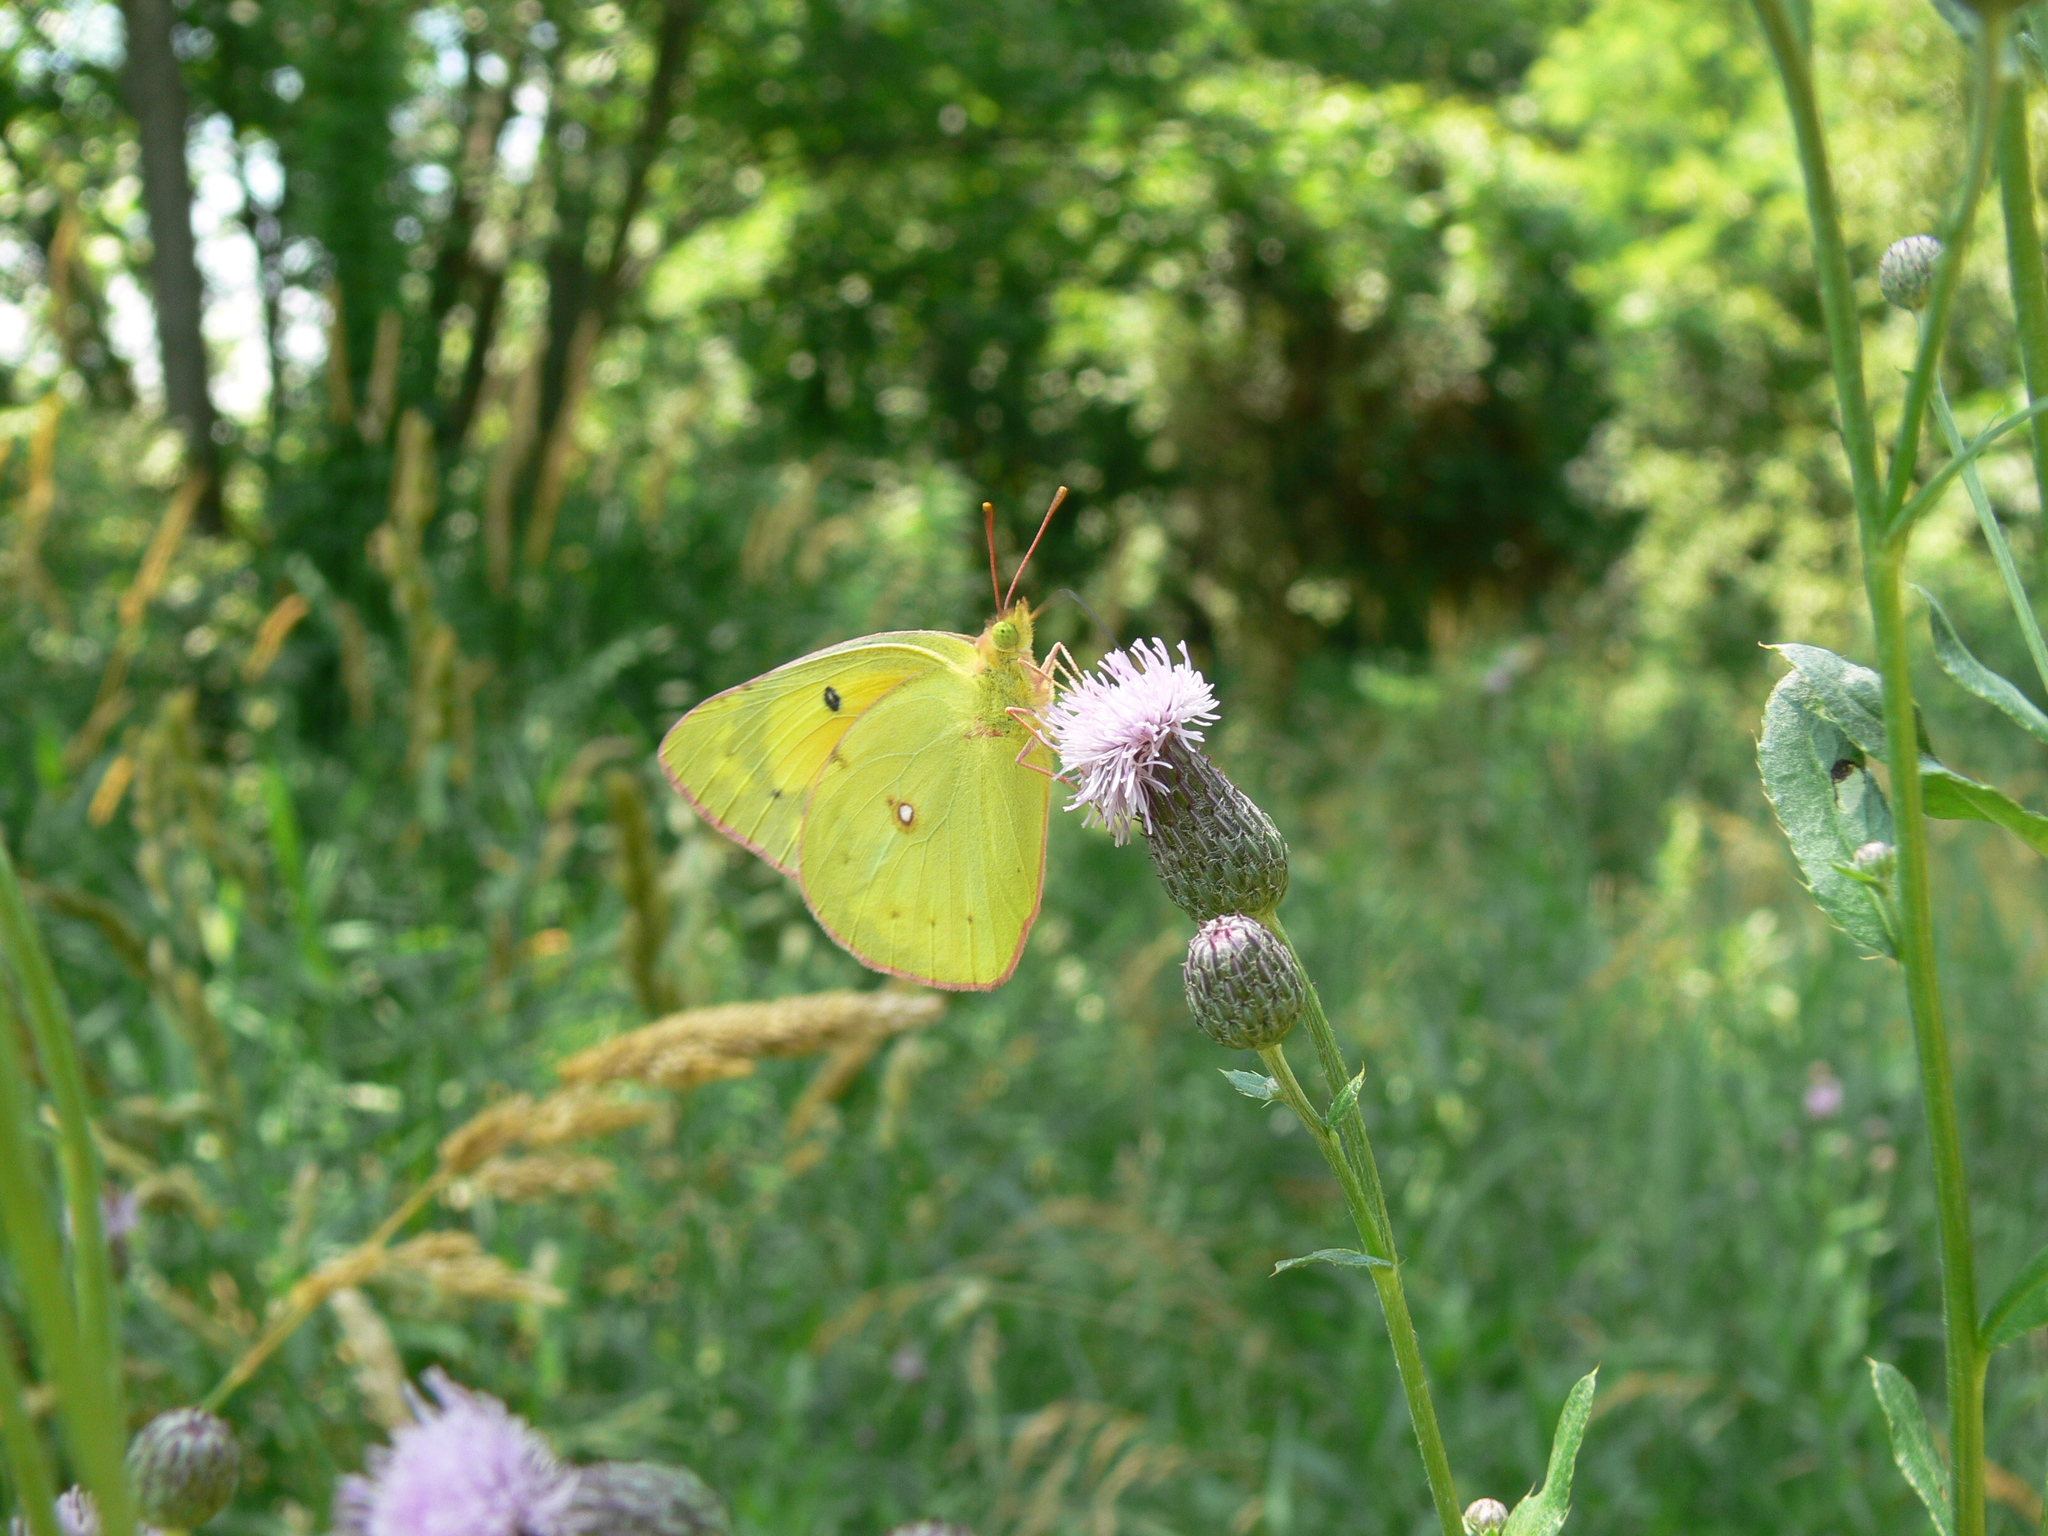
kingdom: Animalia
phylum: Arthropoda
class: Insecta
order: Lepidoptera
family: Pieridae
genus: Colias
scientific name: Colias eurytheme
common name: Alfalfa butterfly
